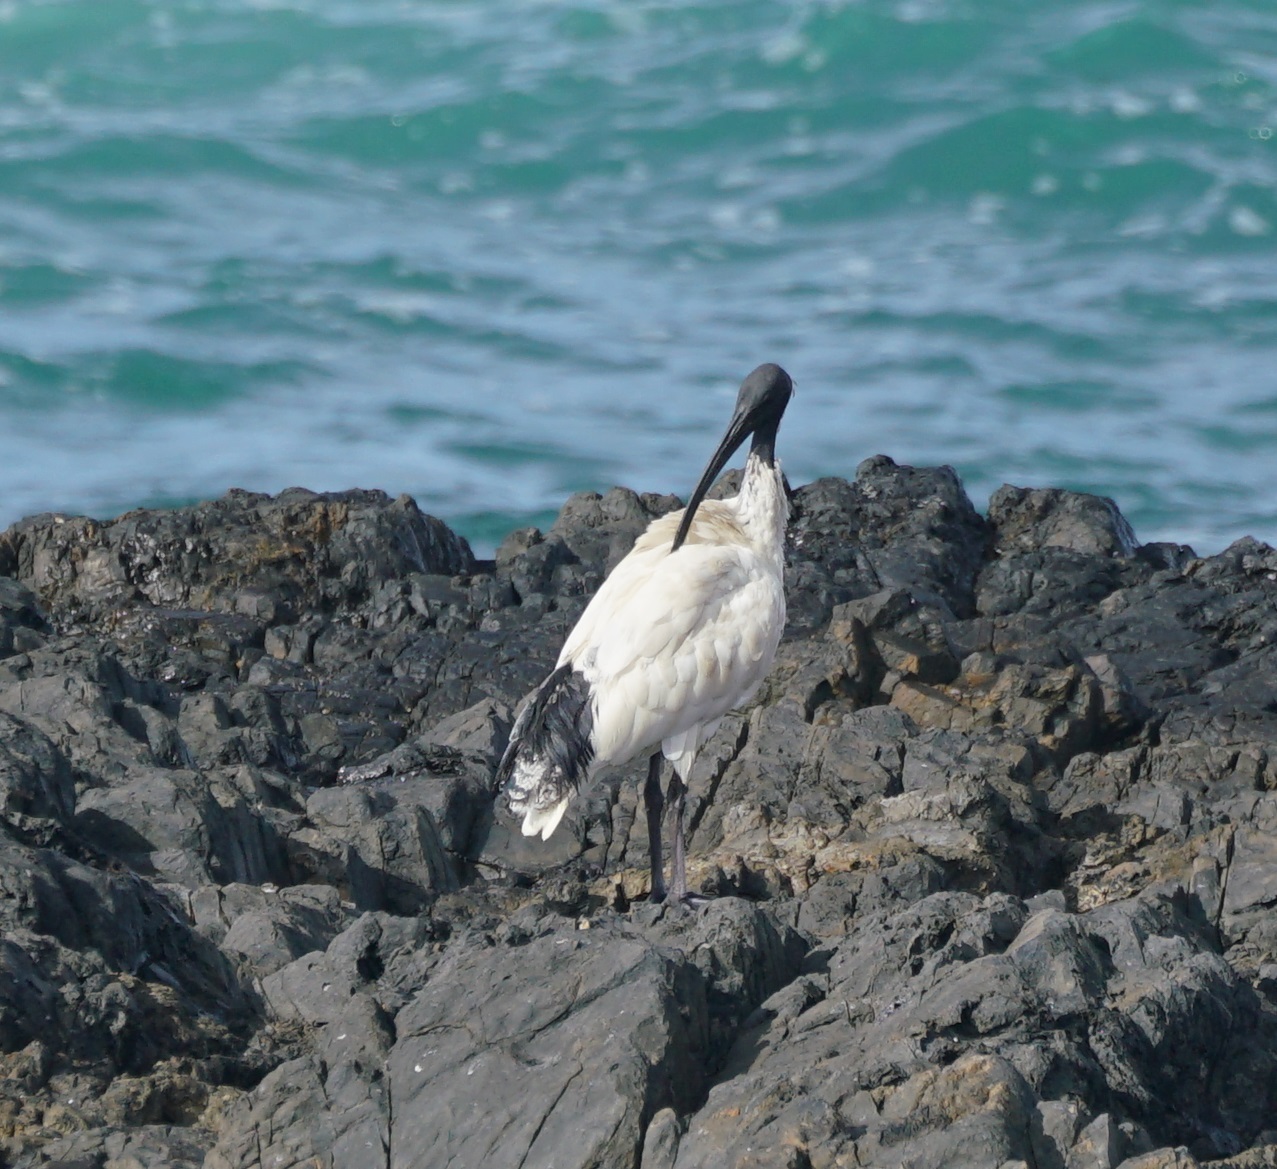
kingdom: Animalia
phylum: Chordata
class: Aves
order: Pelecaniformes
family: Threskiornithidae
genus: Threskiornis
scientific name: Threskiornis molucca
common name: Australian white ibis
